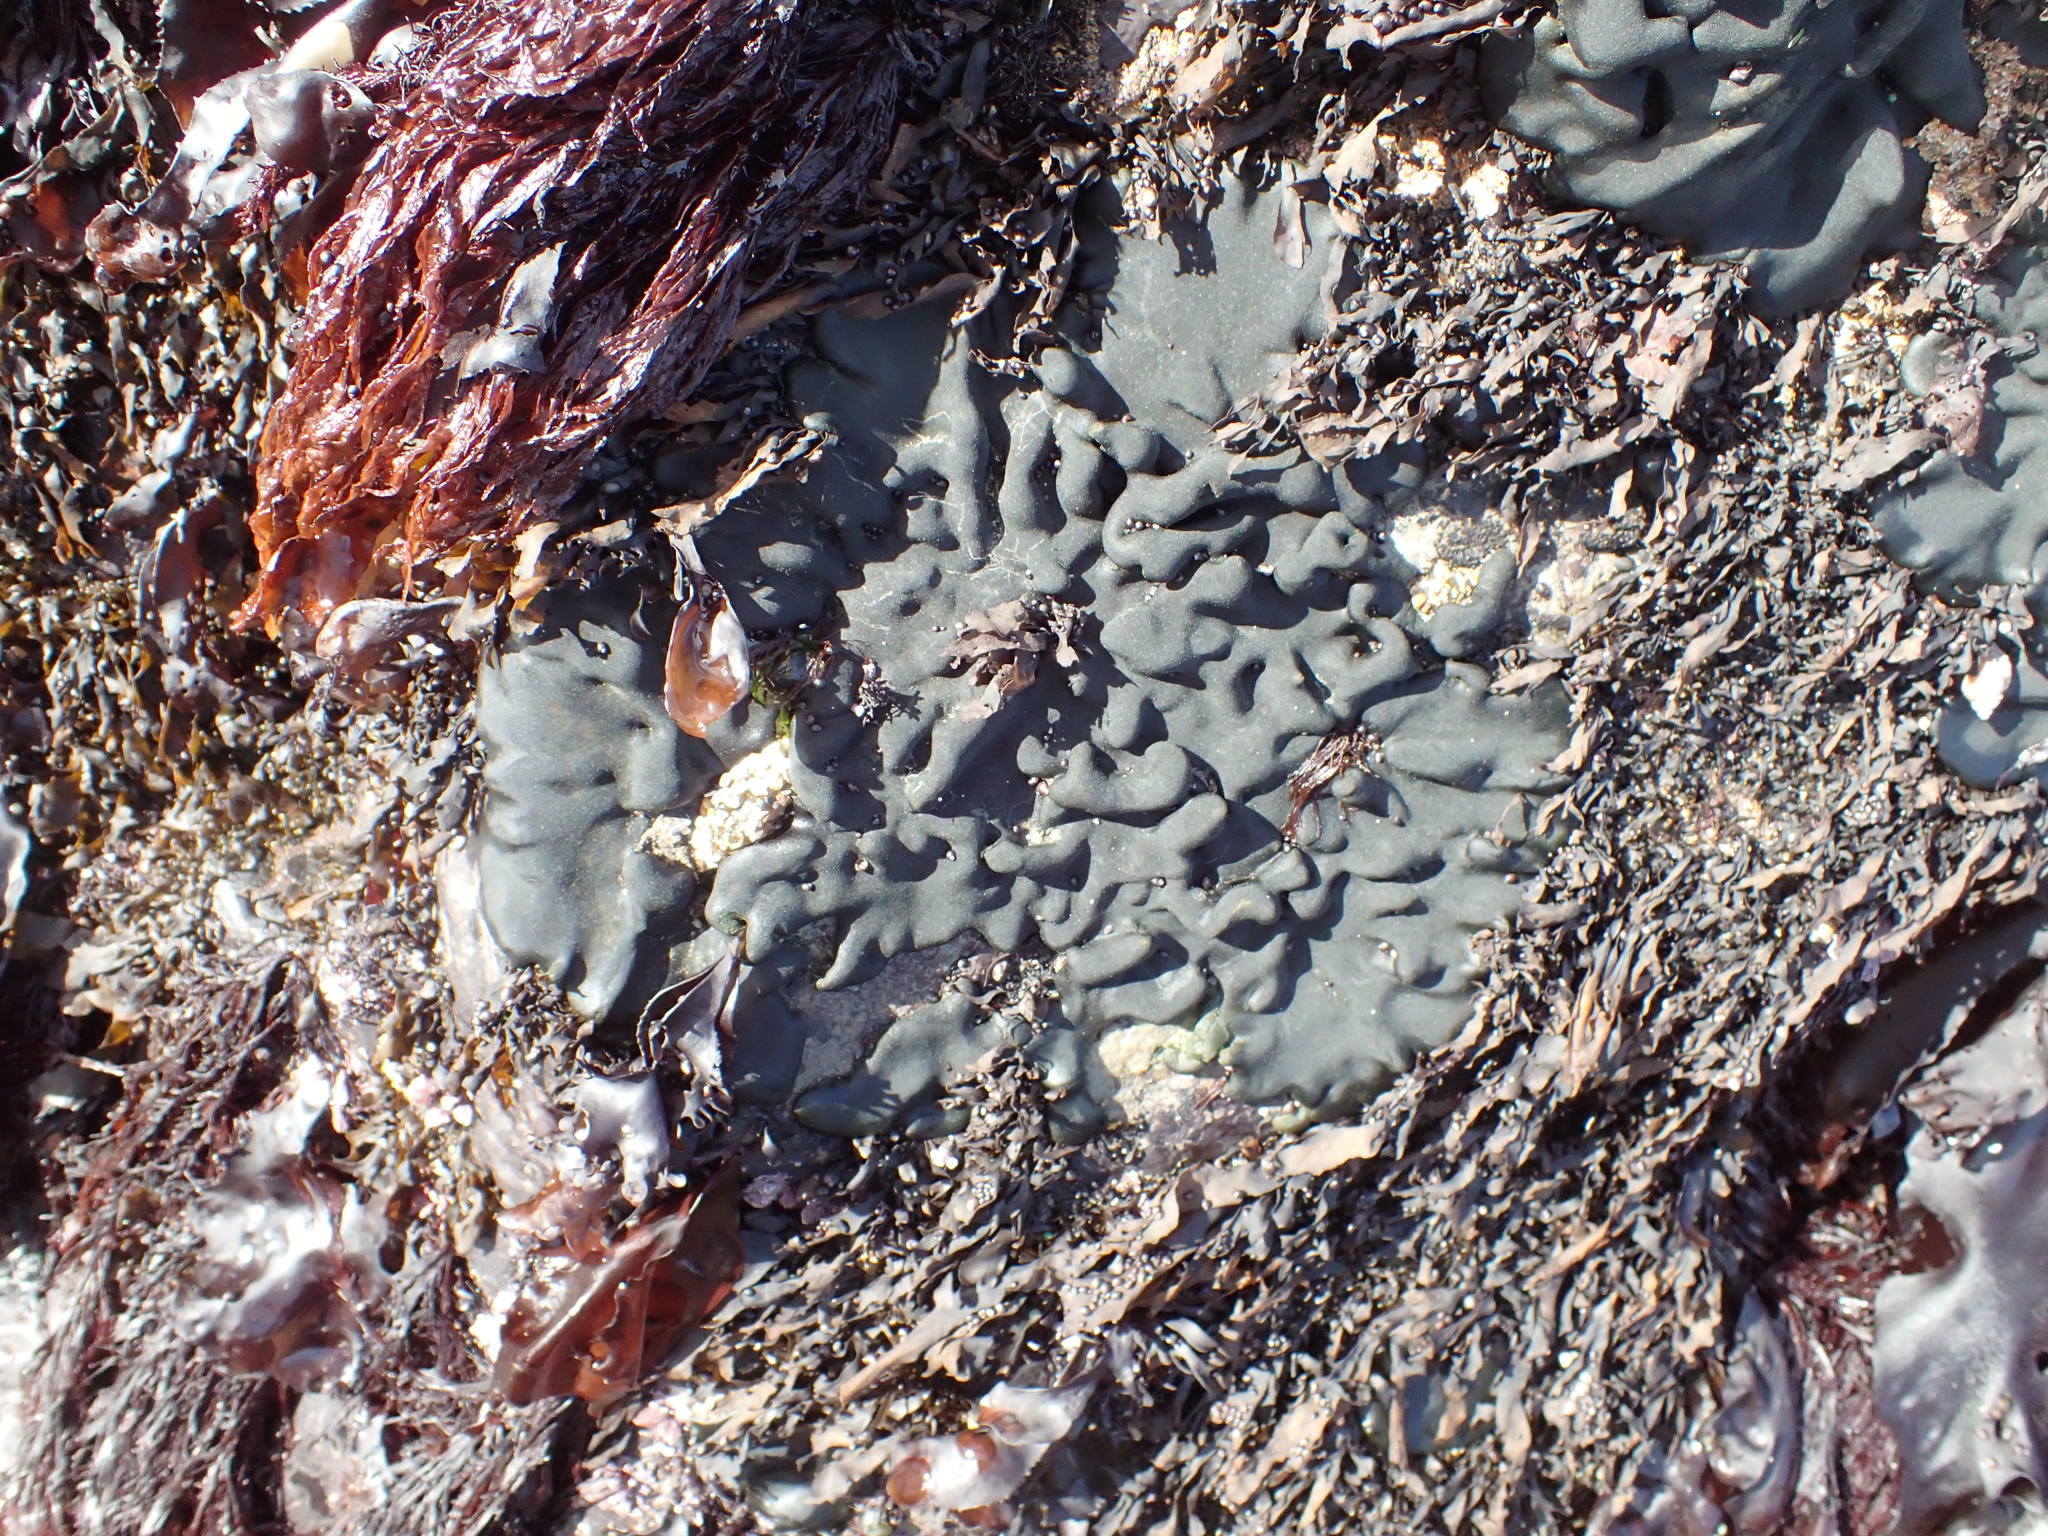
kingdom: Plantae
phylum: Chlorophyta
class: Ulvophyceae
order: Bryopsidales
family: Codiaceae
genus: Codium
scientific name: Codium setchellii
